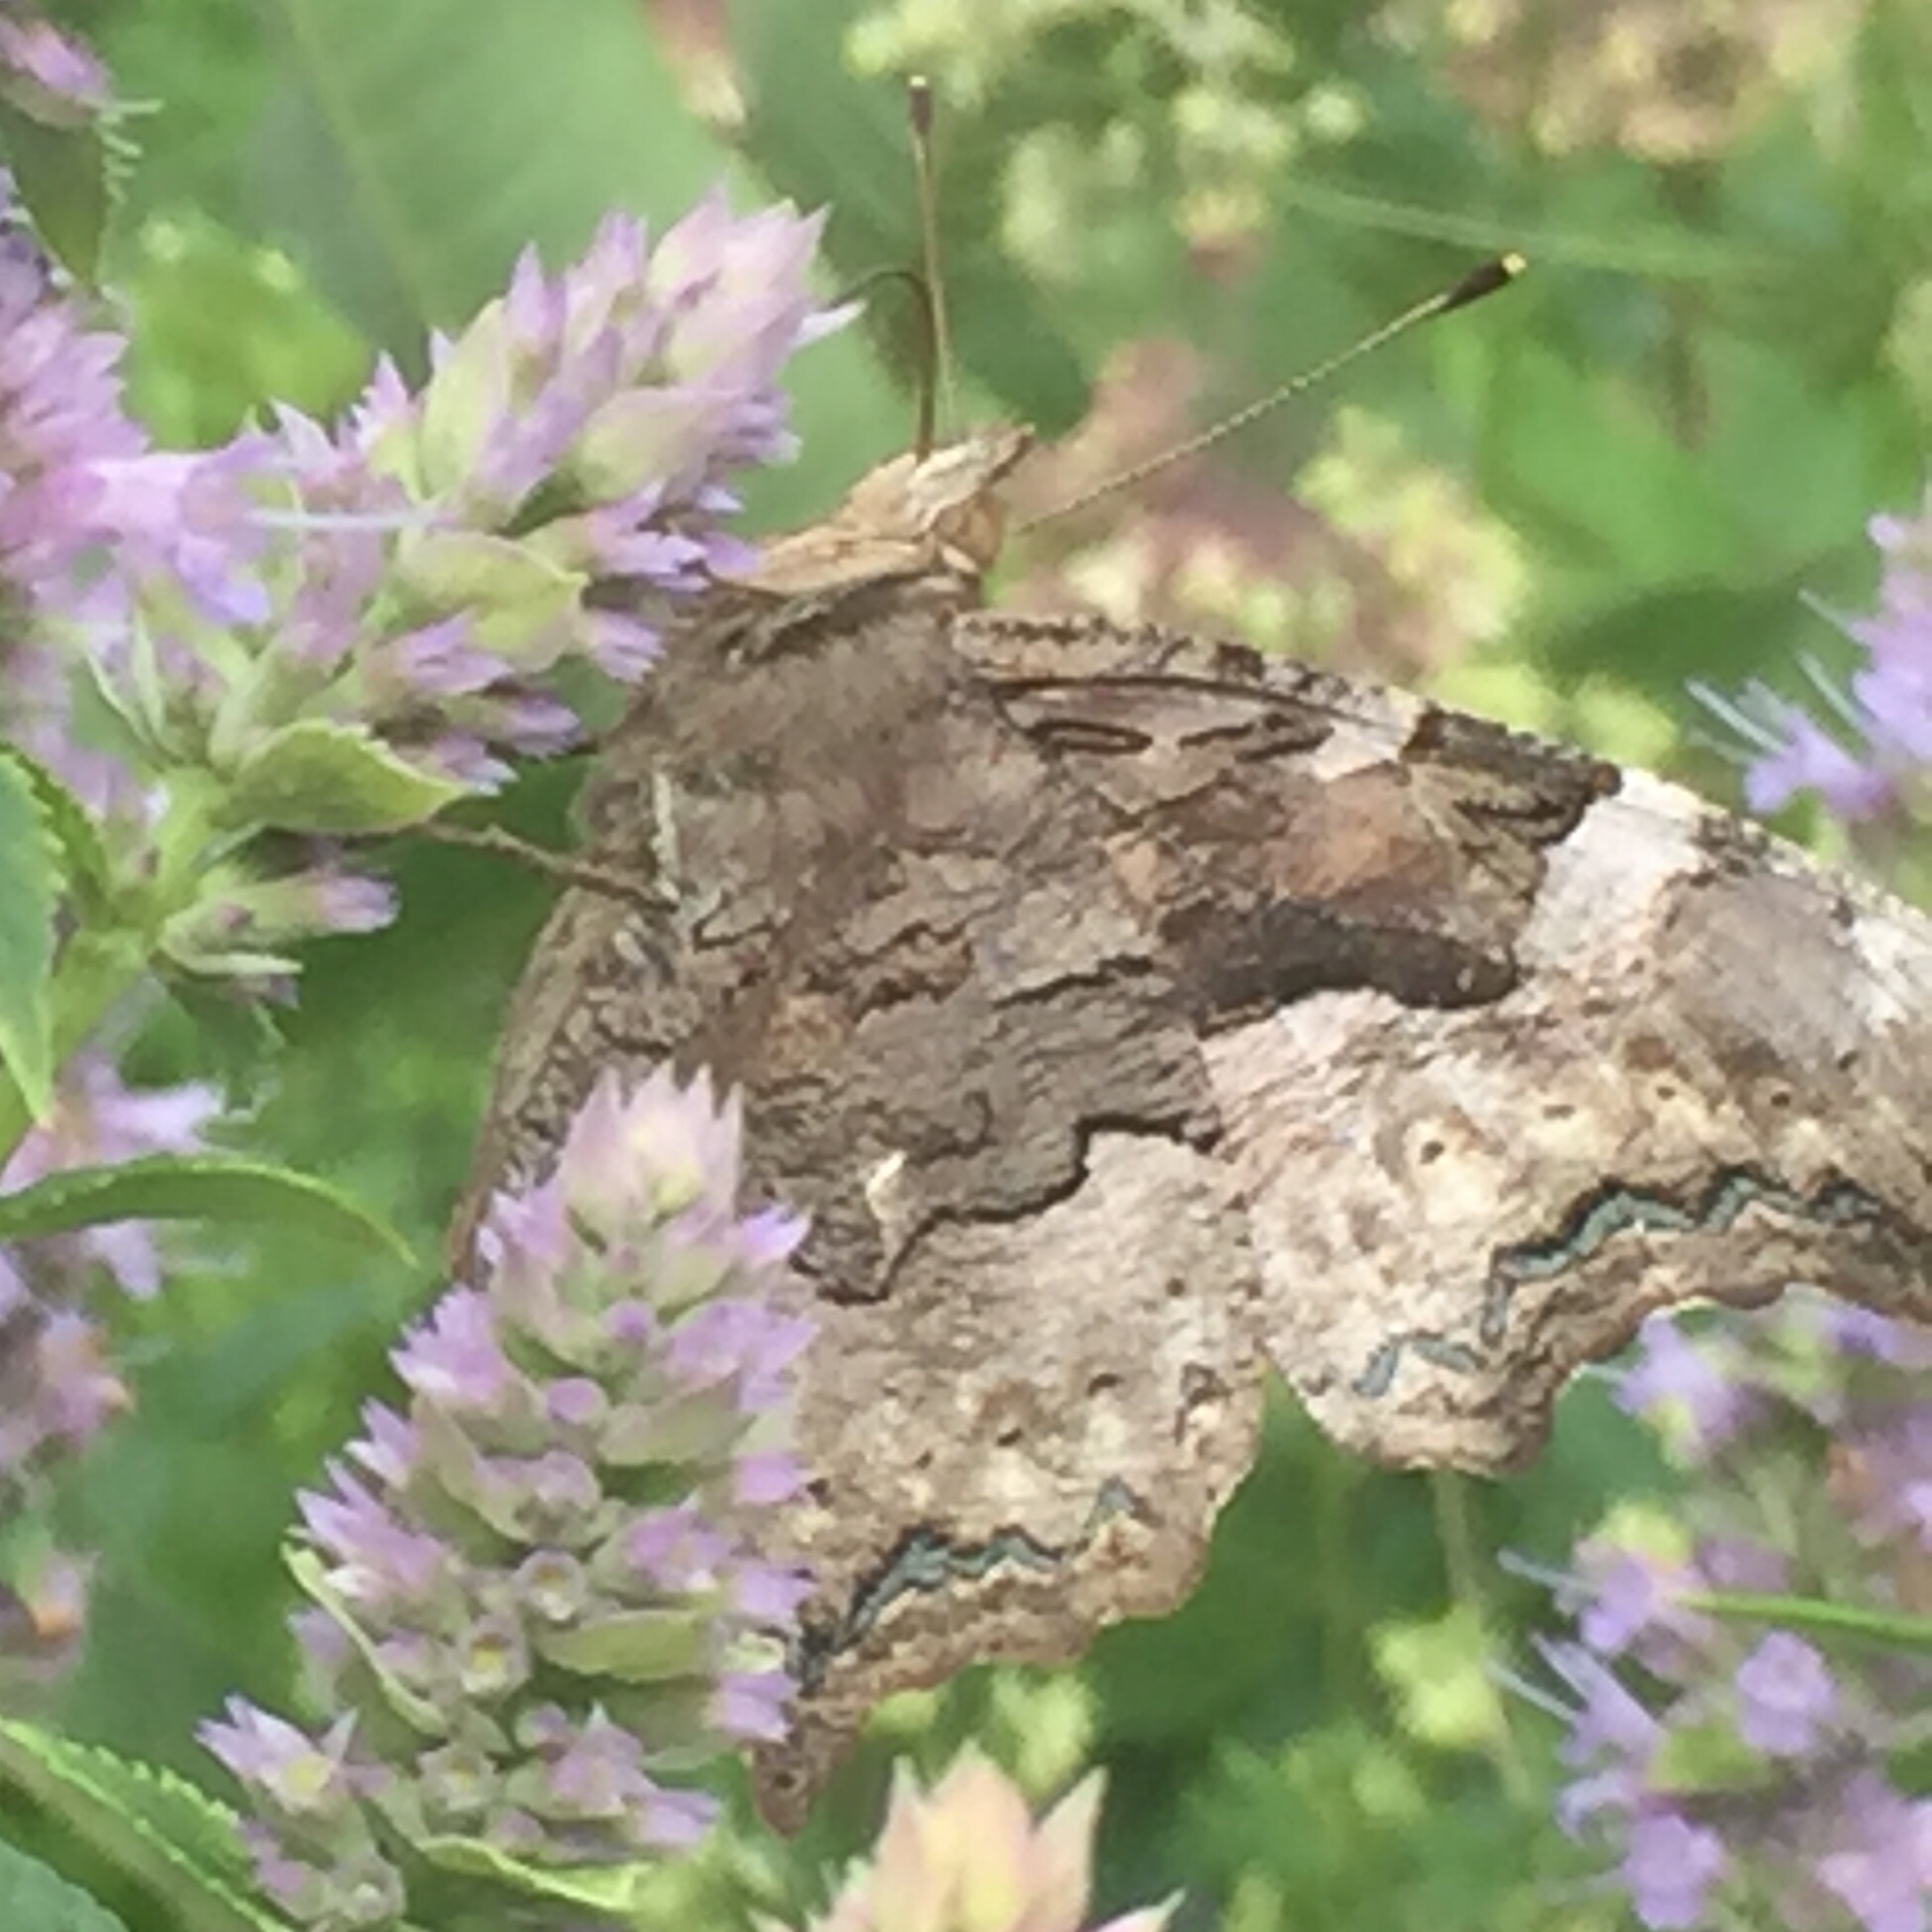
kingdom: Animalia
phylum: Arthropoda
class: Insecta
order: Lepidoptera
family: Nymphalidae
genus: Polygonia
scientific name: Polygonia vaualbum
